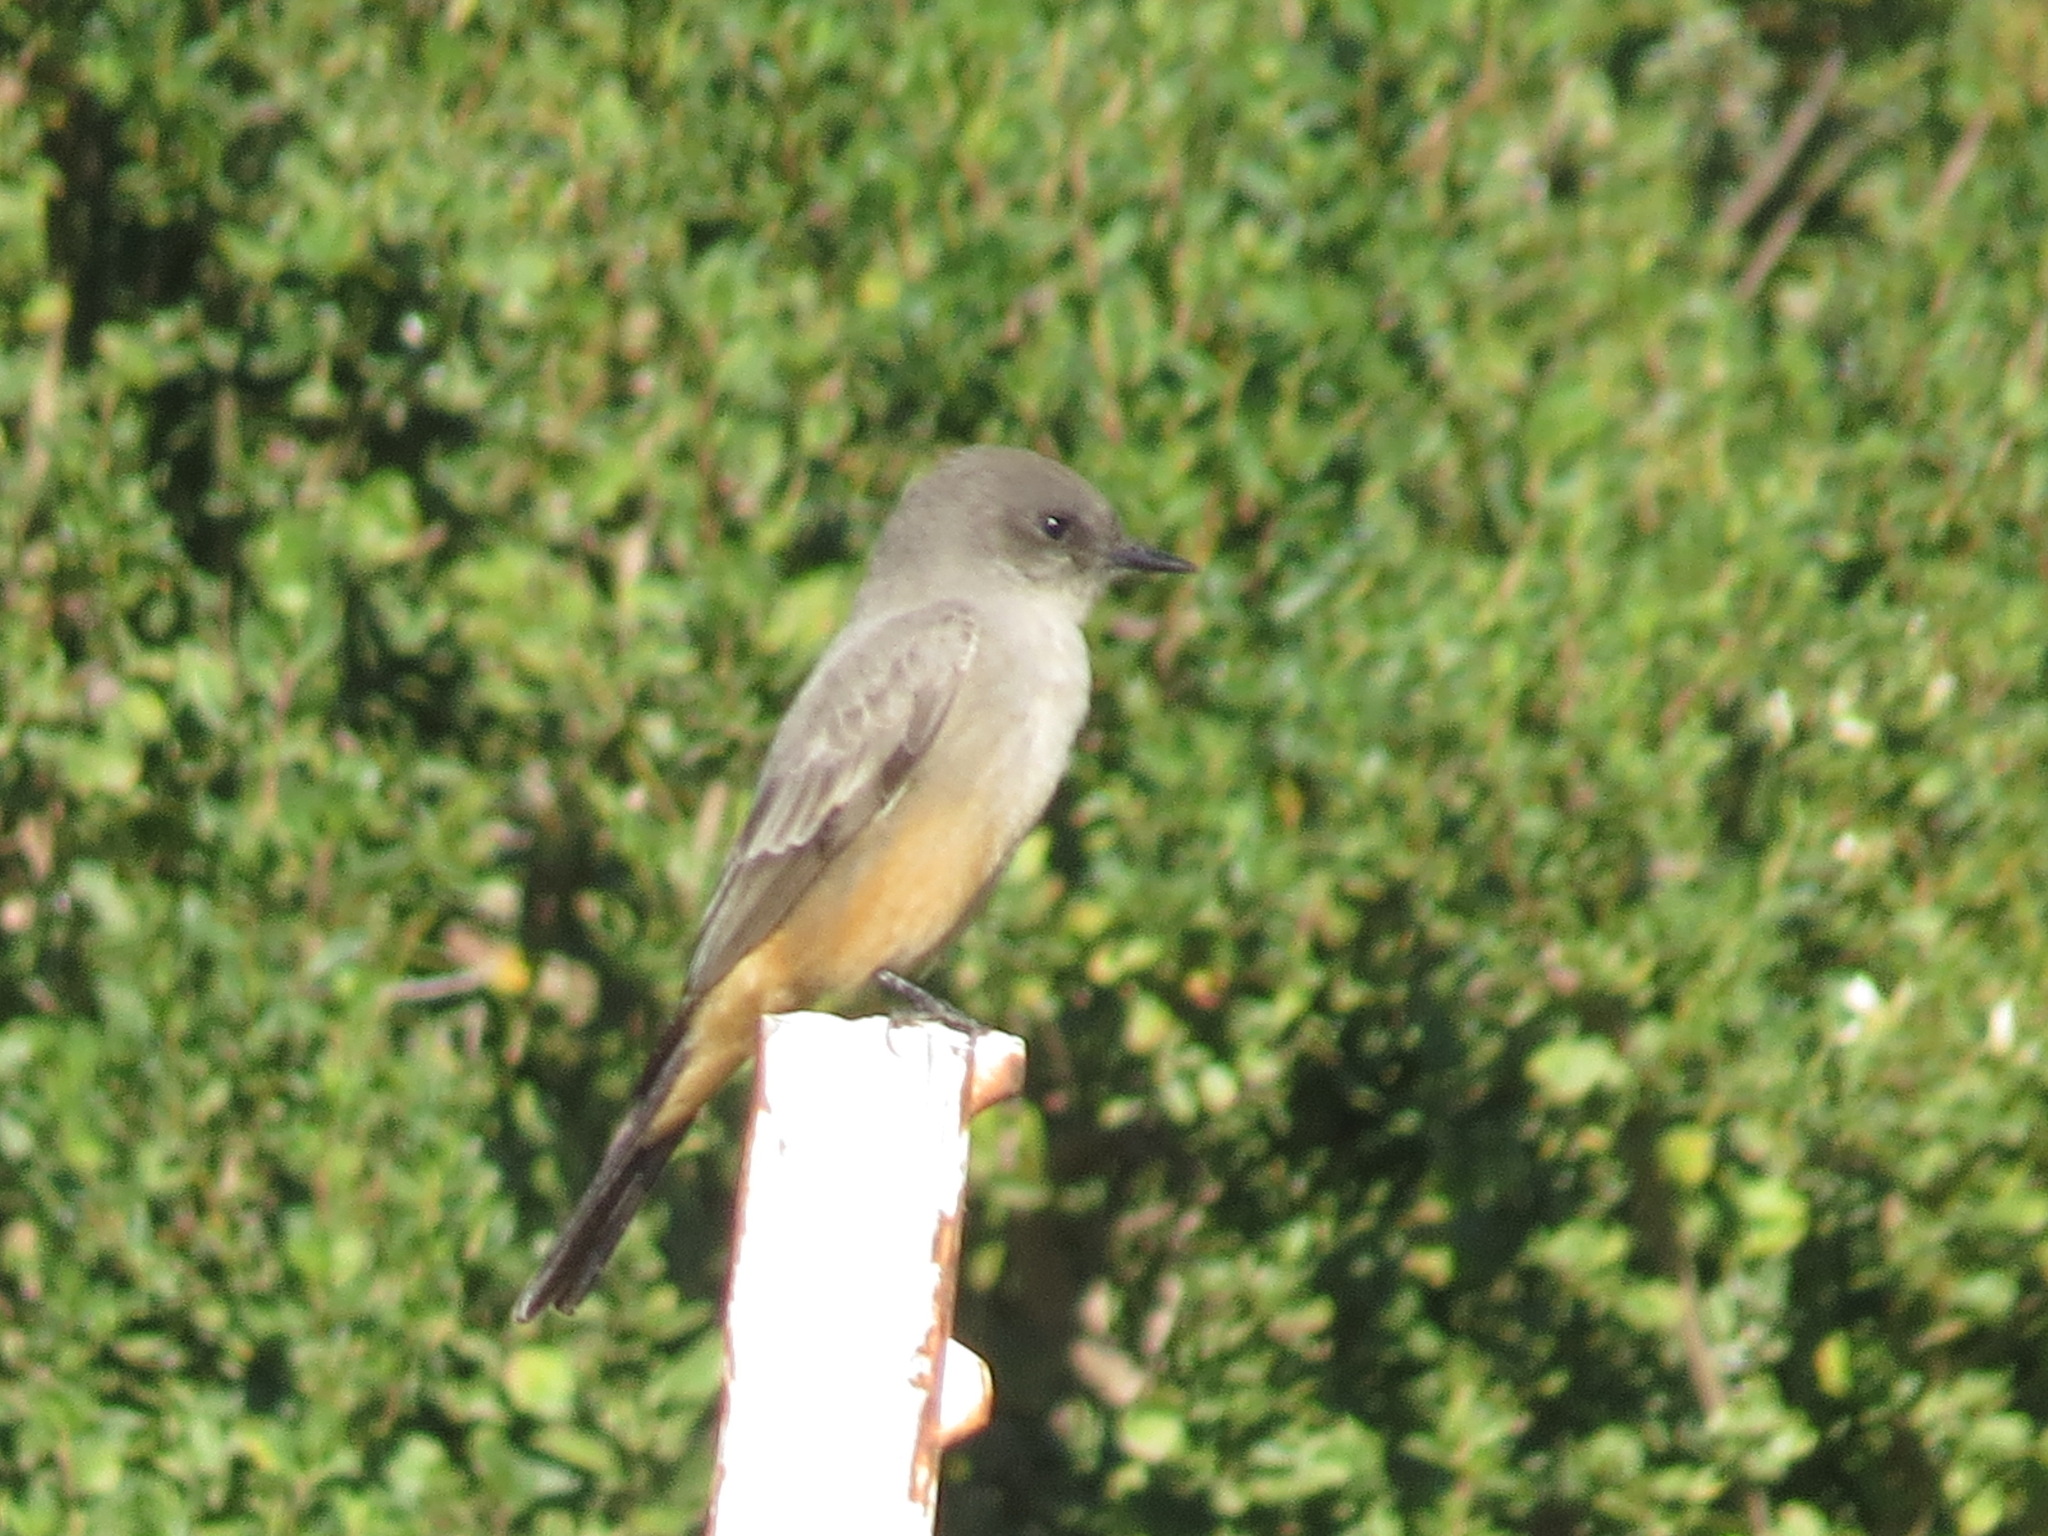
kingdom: Animalia
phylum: Chordata
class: Aves
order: Passeriformes
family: Tyrannidae
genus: Sayornis
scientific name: Sayornis saya
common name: Say's phoebe
